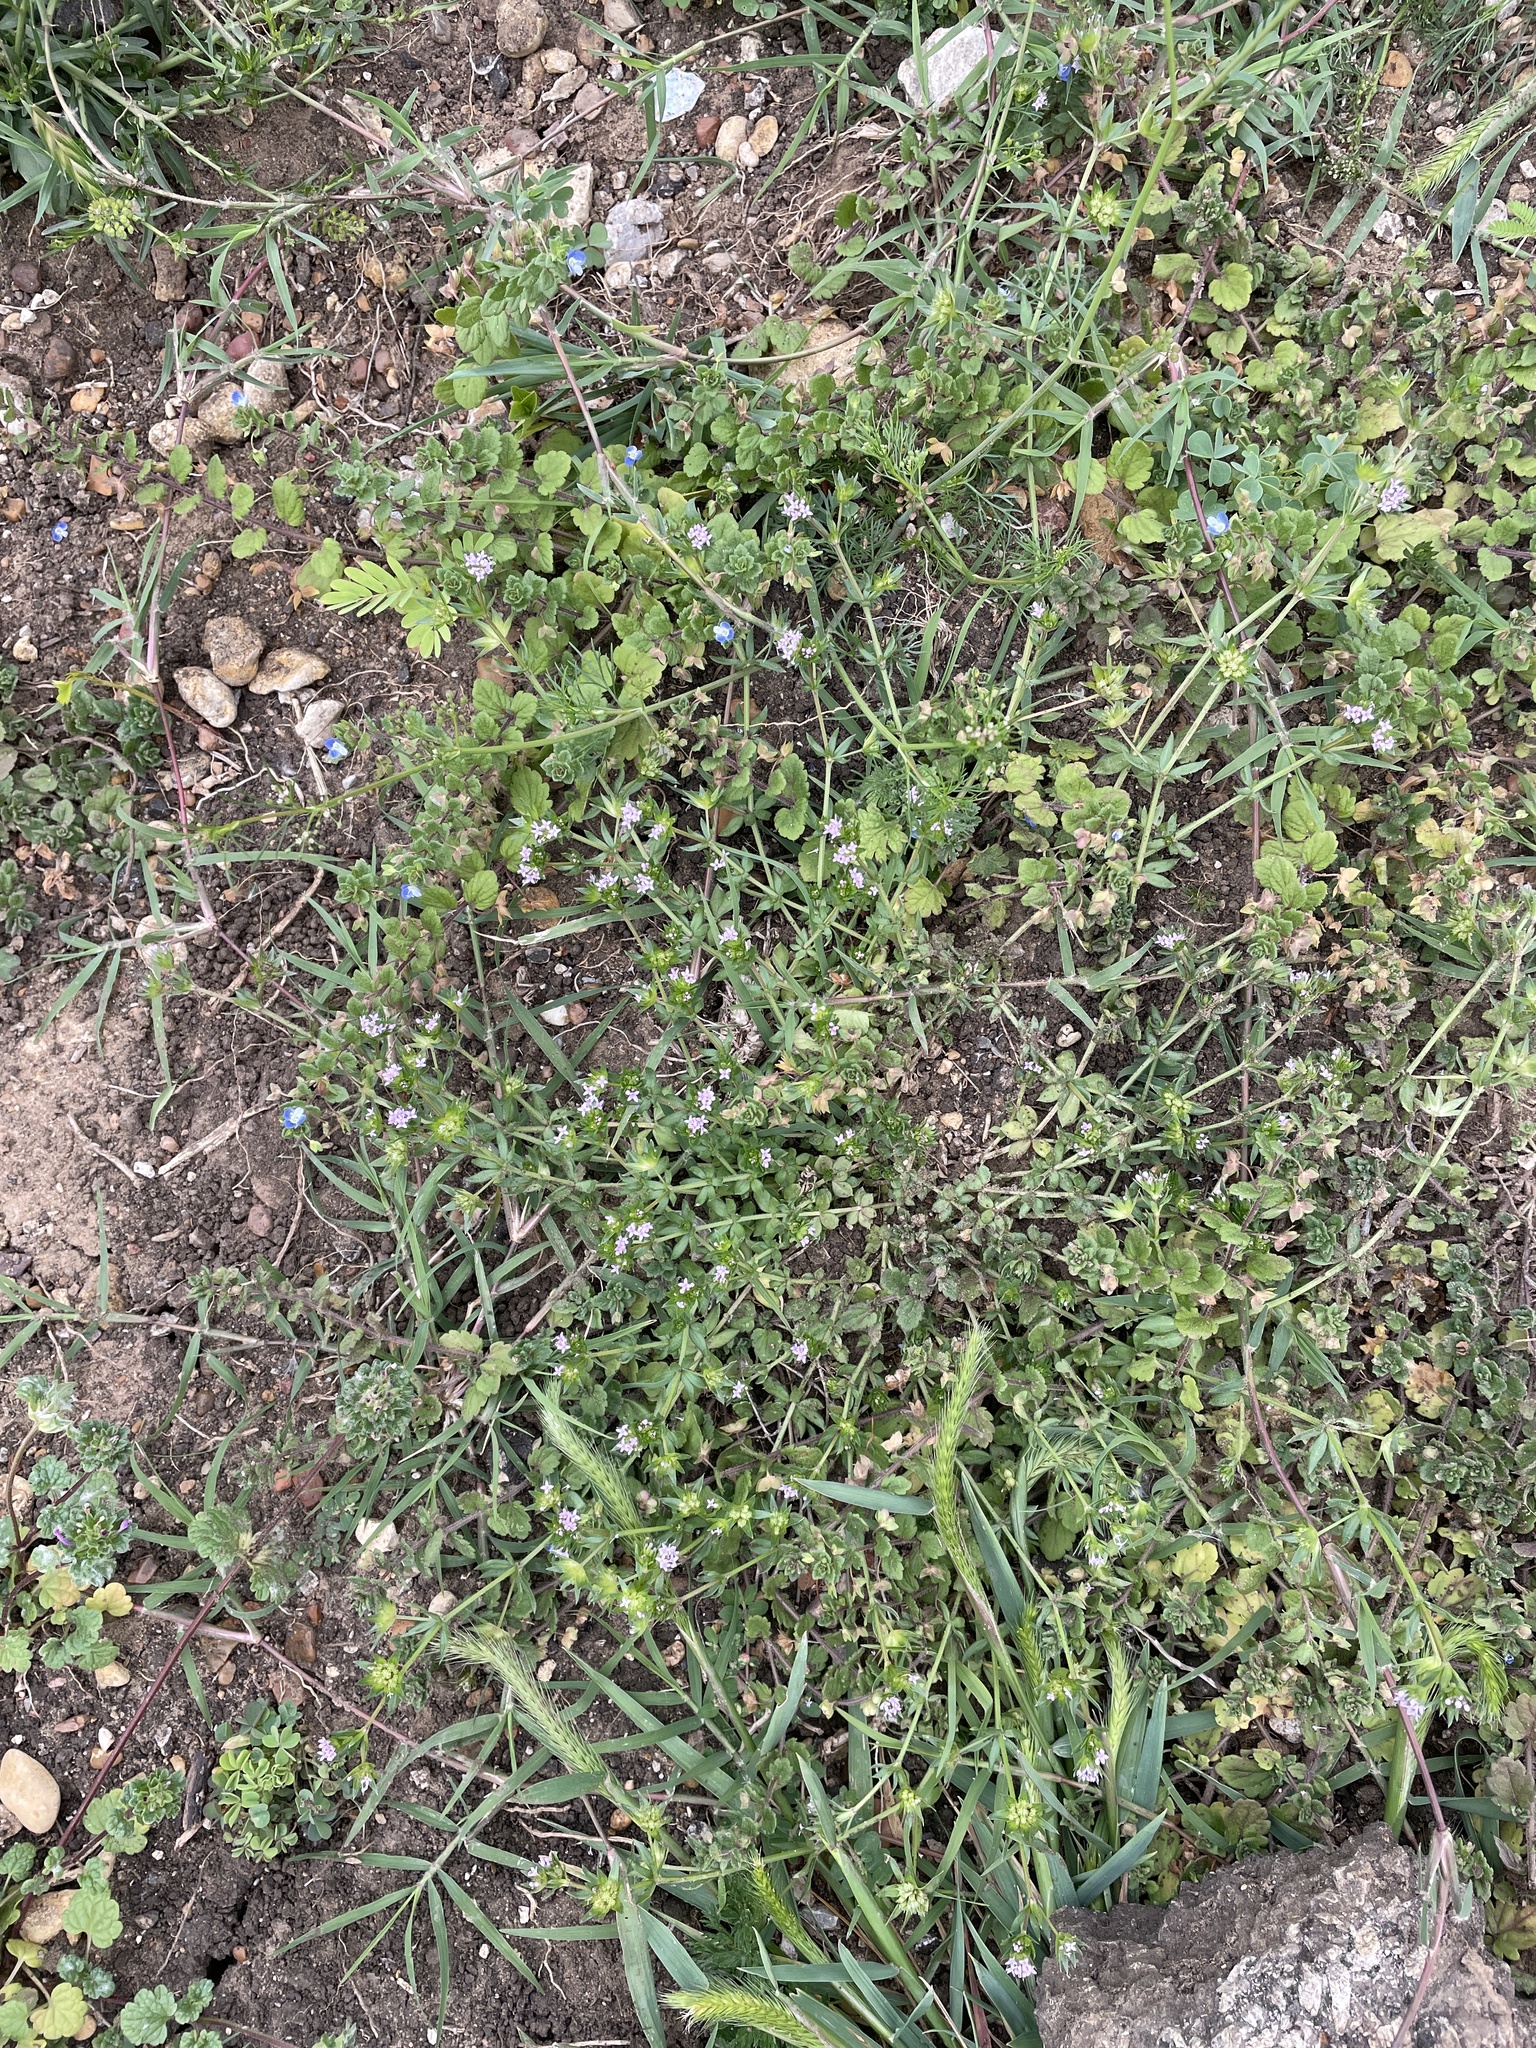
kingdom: Plantae
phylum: Tracheophyta
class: Magnoliopsida
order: Gentianales
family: Rubiaceae
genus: Sherardia
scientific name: Sherardia arvensis
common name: Field madder
